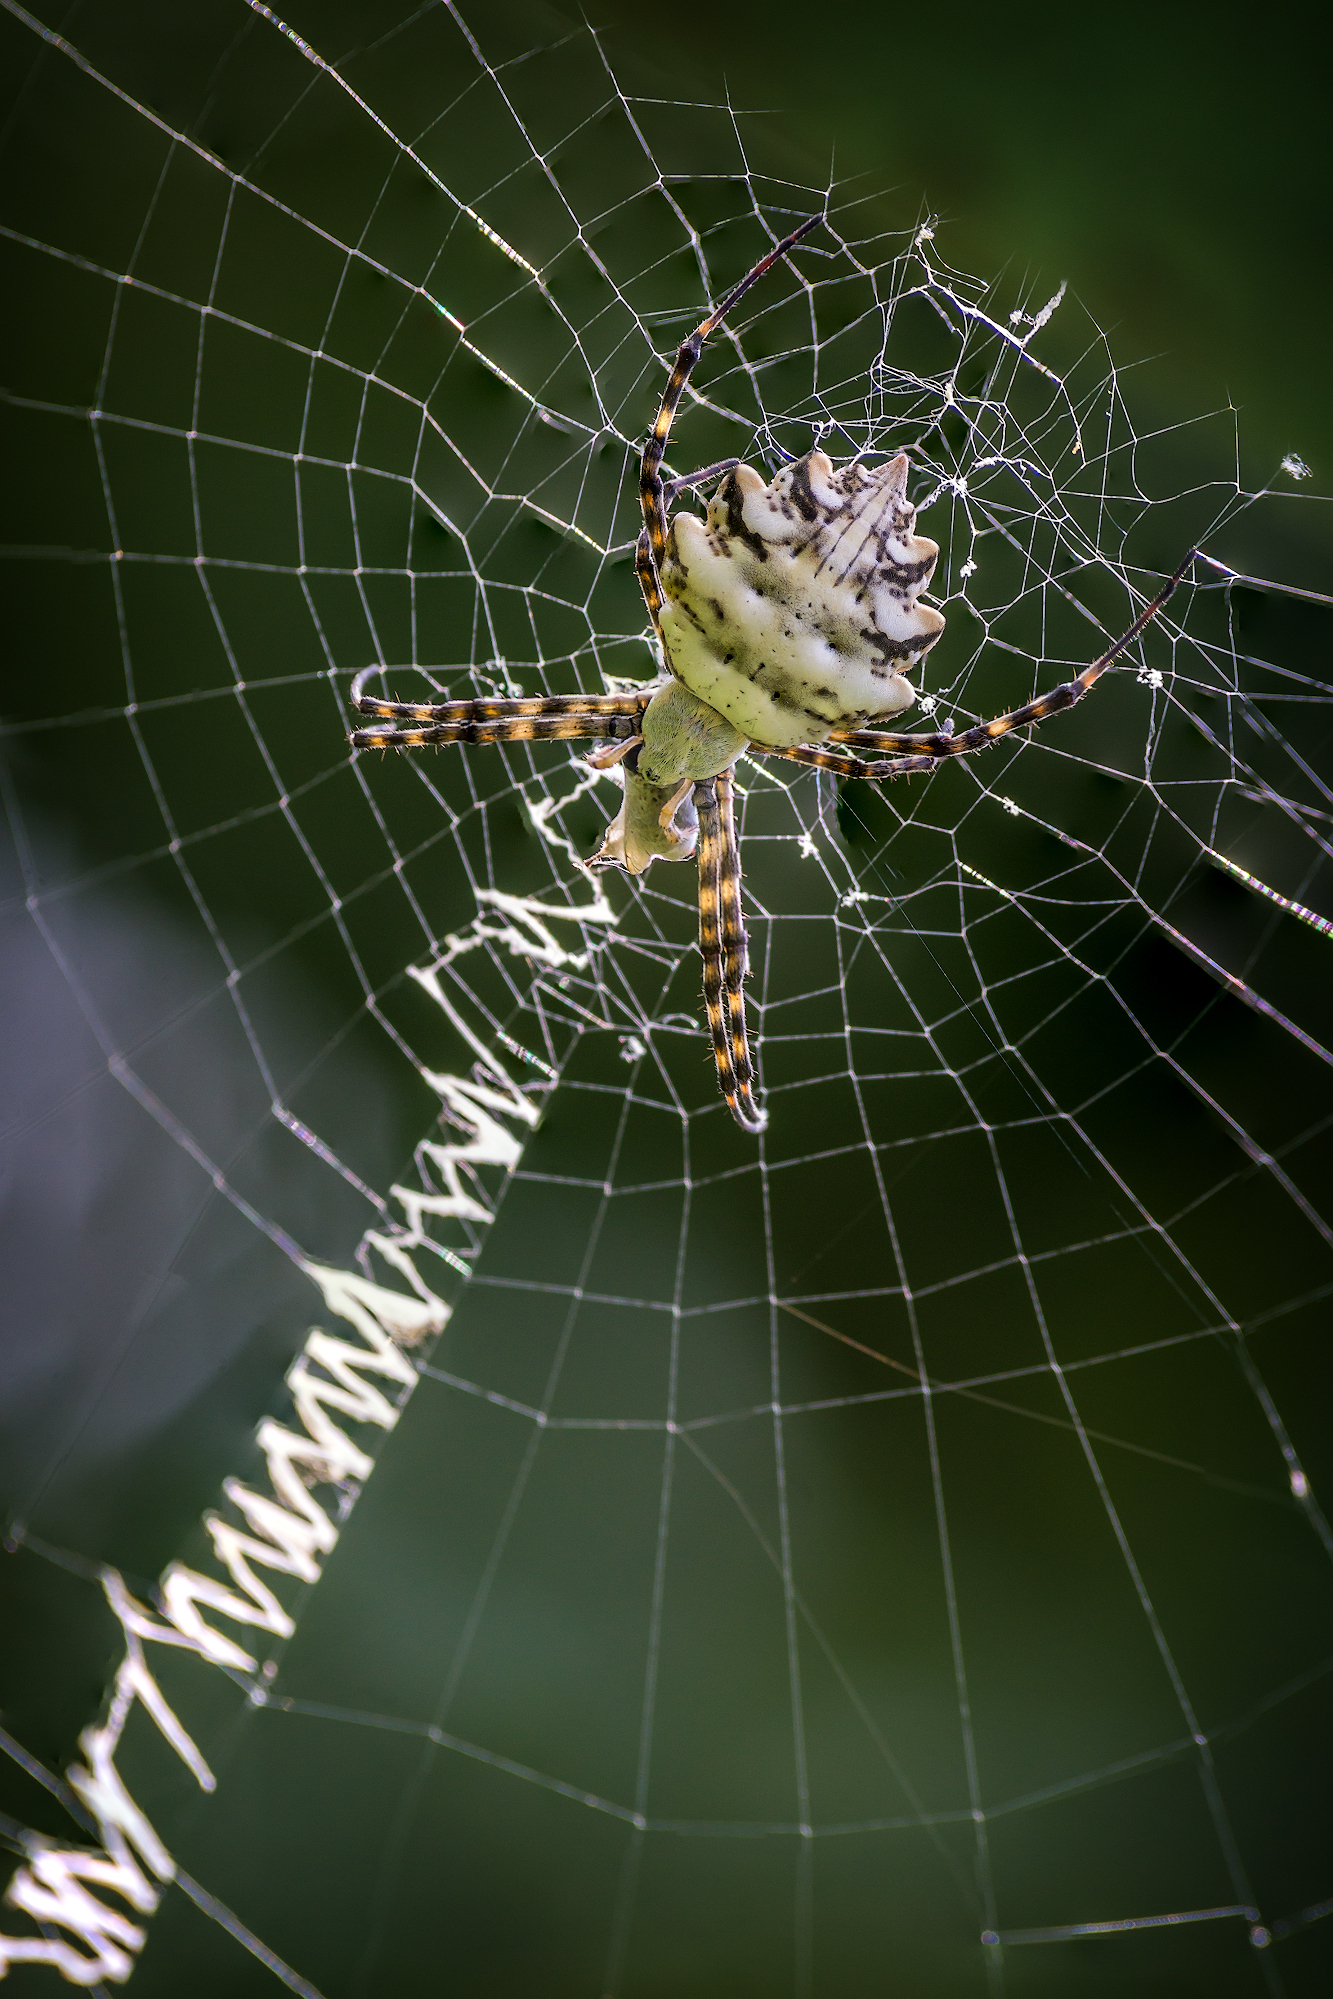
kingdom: Animalia
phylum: Arthropoda
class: Arachnida
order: Araneae
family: Araneidae
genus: Argiope
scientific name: Argiope lobata
